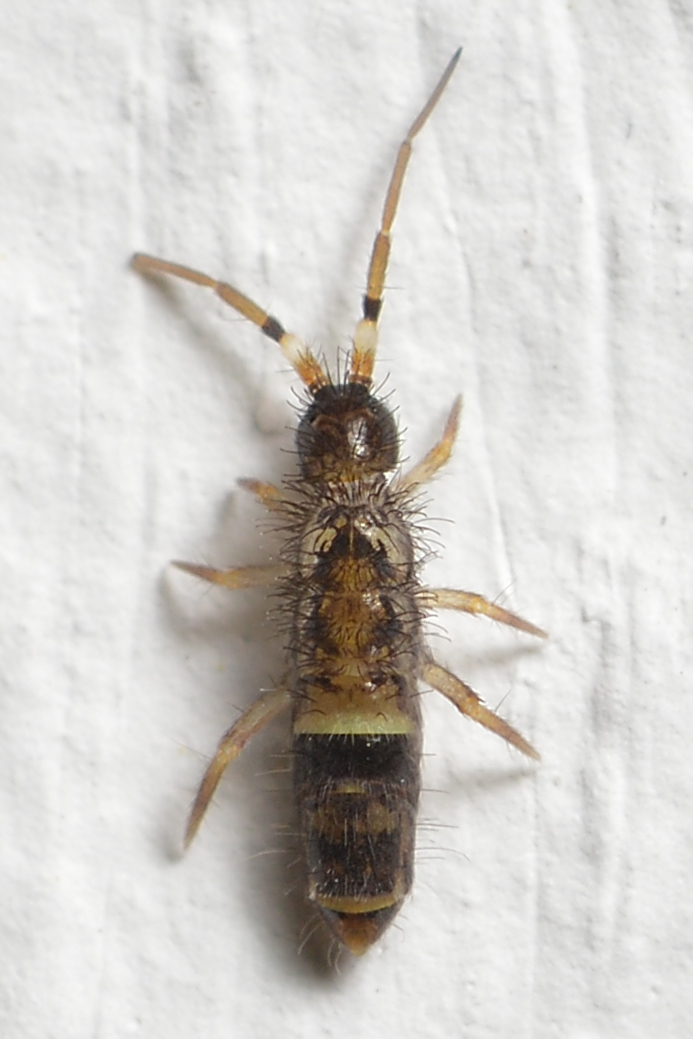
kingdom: Animalia
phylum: Arthropoda
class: Collembola
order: Entomobryomorpha
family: Orchesellidae
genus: Orchesella
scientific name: Orchesella cincta
